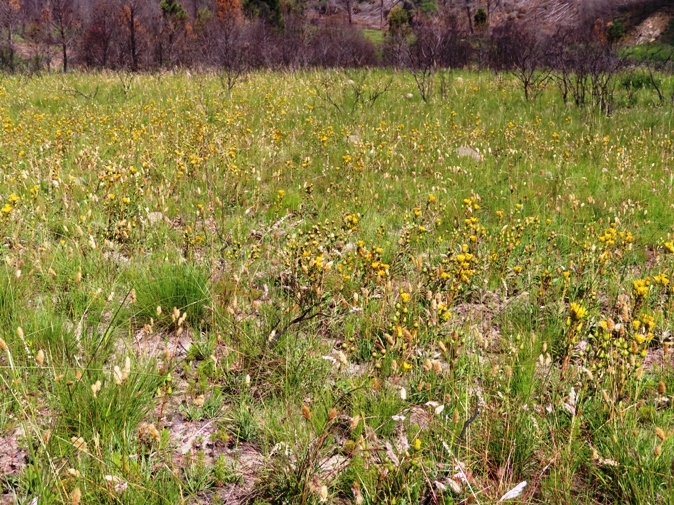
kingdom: Plantae
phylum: Tracheophyta
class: Magnoliopsida
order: Asterales
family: Asteraceae
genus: Berkheya
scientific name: Berkheya herbacea
